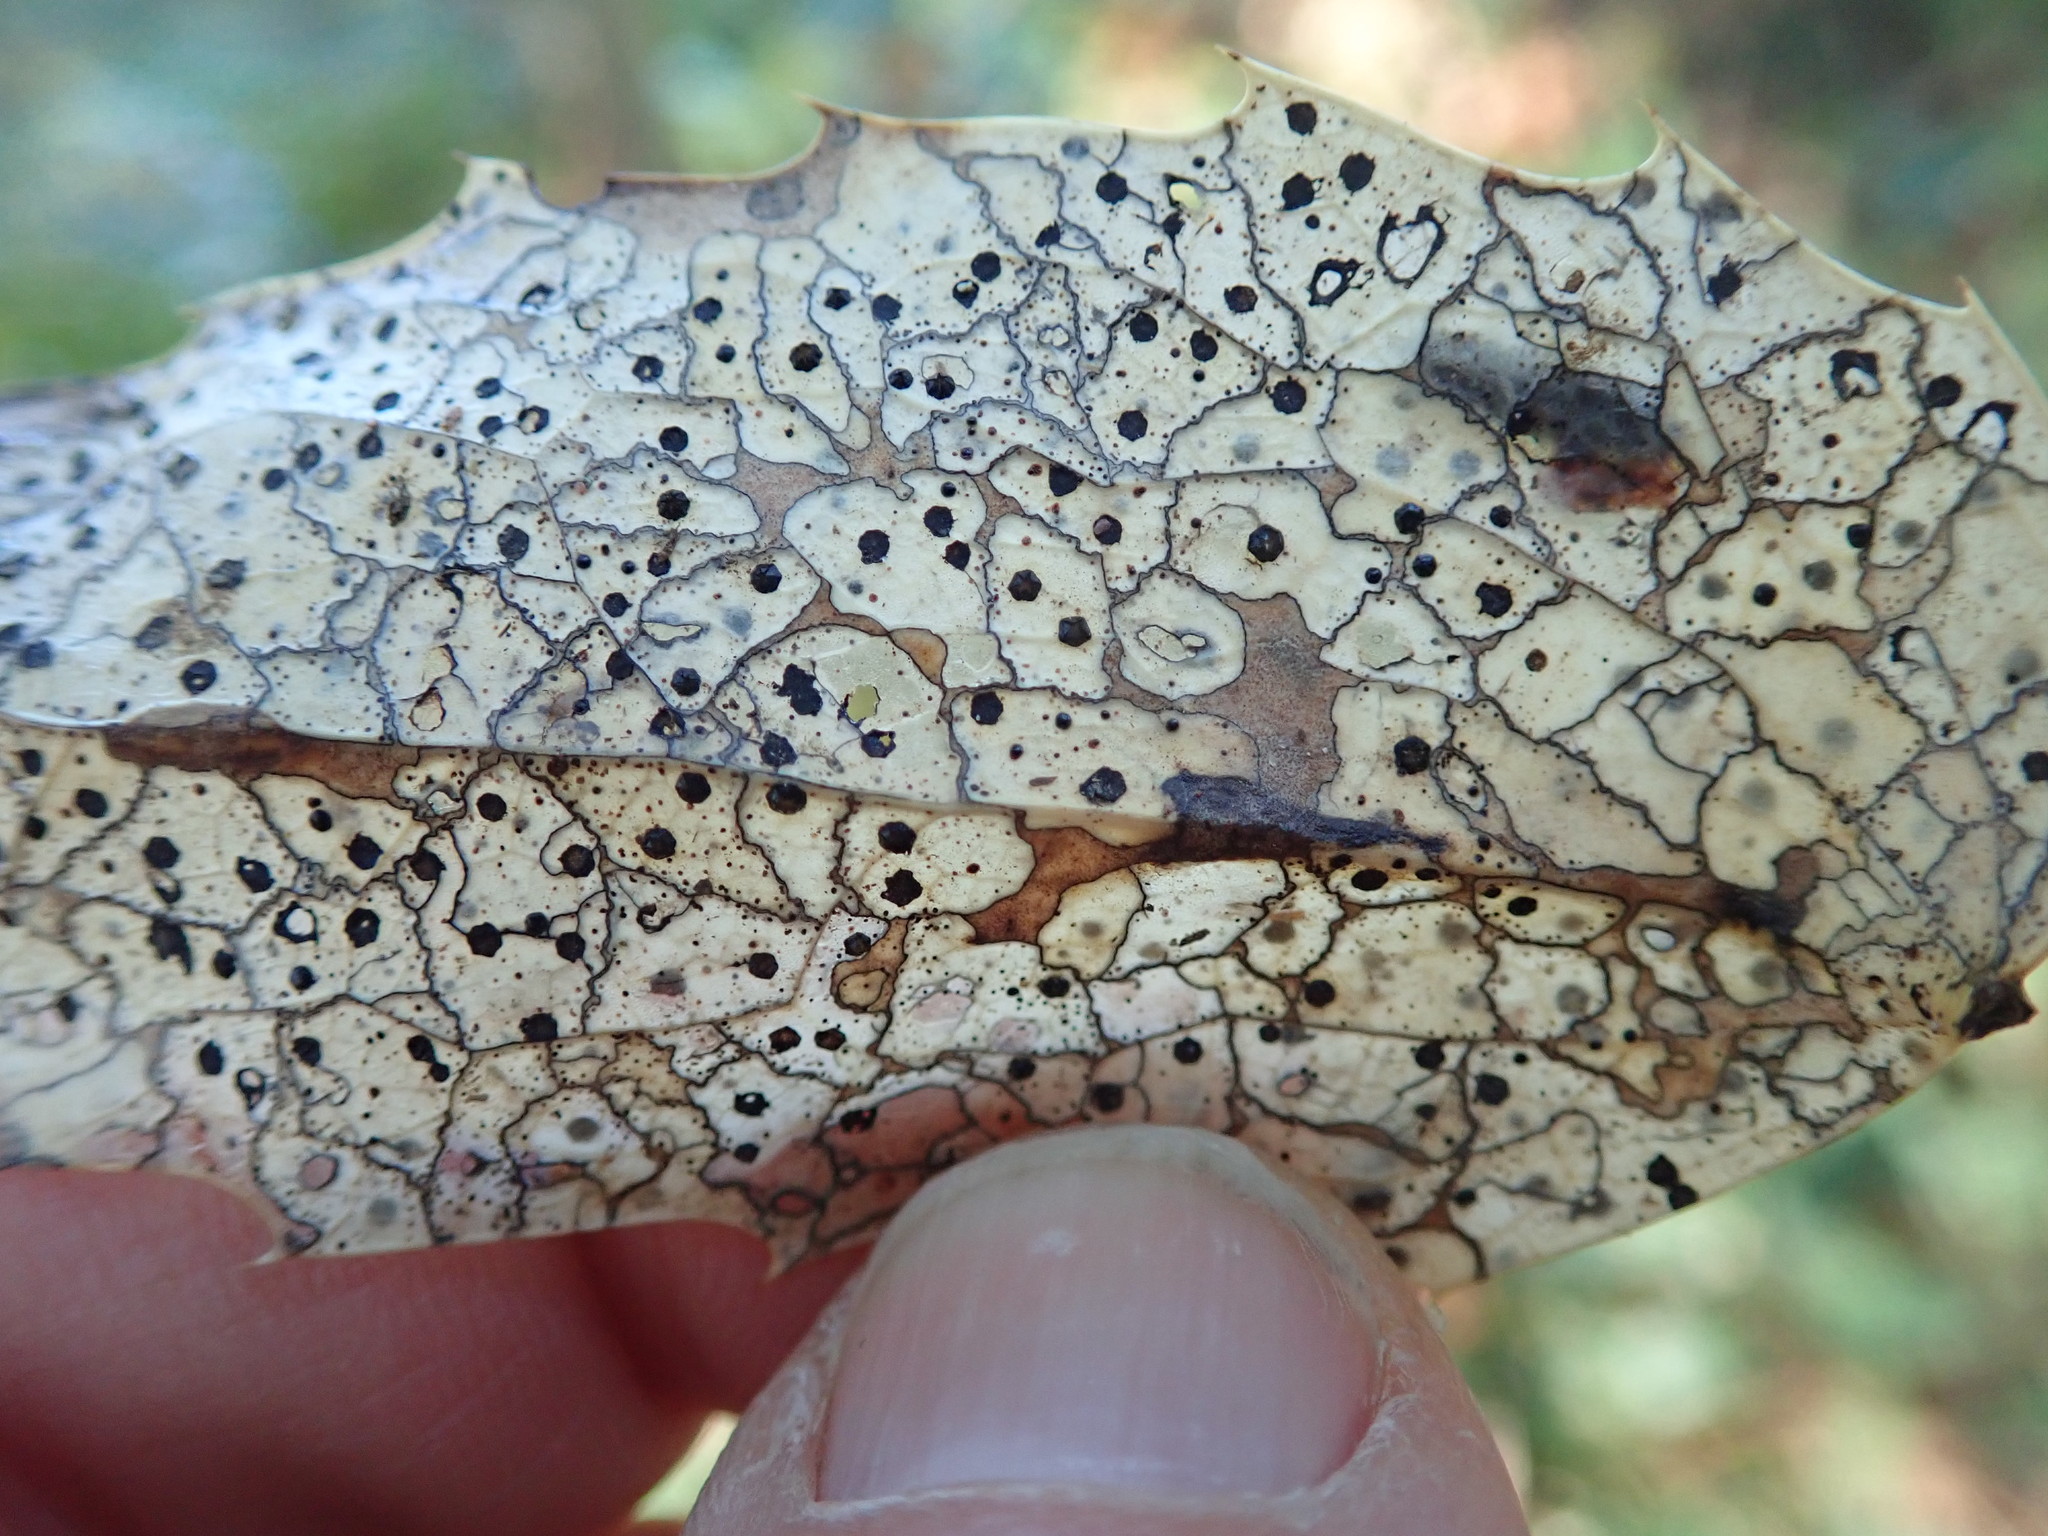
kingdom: Fungi
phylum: Ascomycota
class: Leotiomycetes
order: Rhytismatales
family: Rhytismataceae
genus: Coccomyces
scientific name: Coccomyces dentatus
